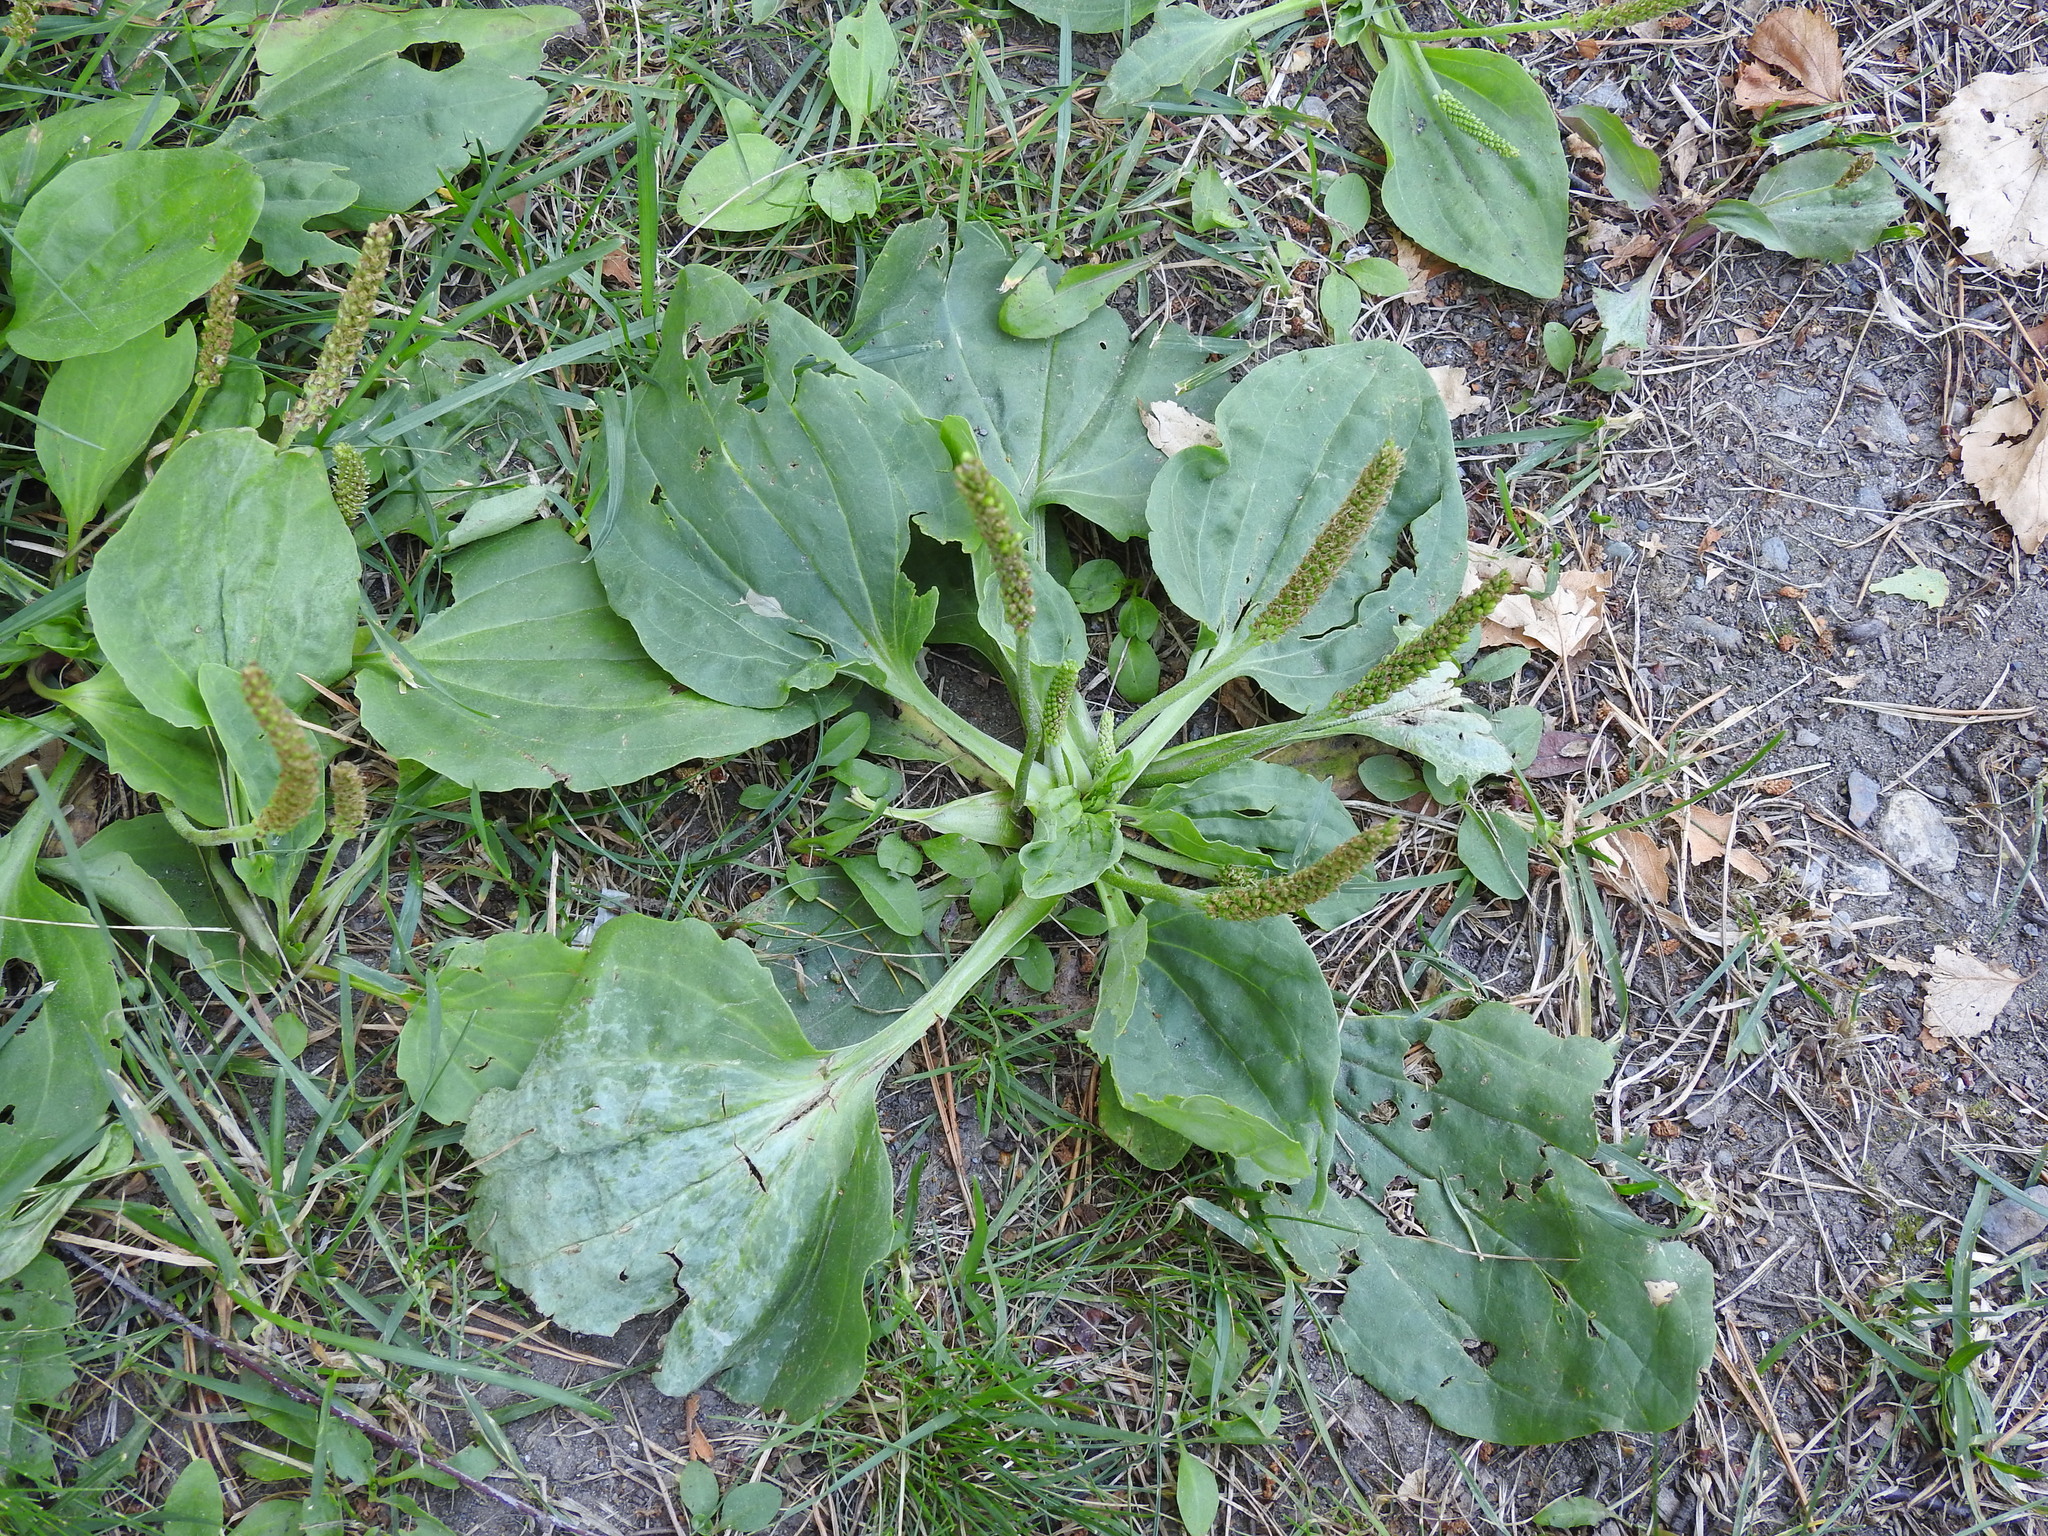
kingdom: Plantae
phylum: Tracheophyta
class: Magnoliopsida
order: Lamiales
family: Plantaginaceae
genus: Plantago
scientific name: Plantago major
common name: Common plantain
